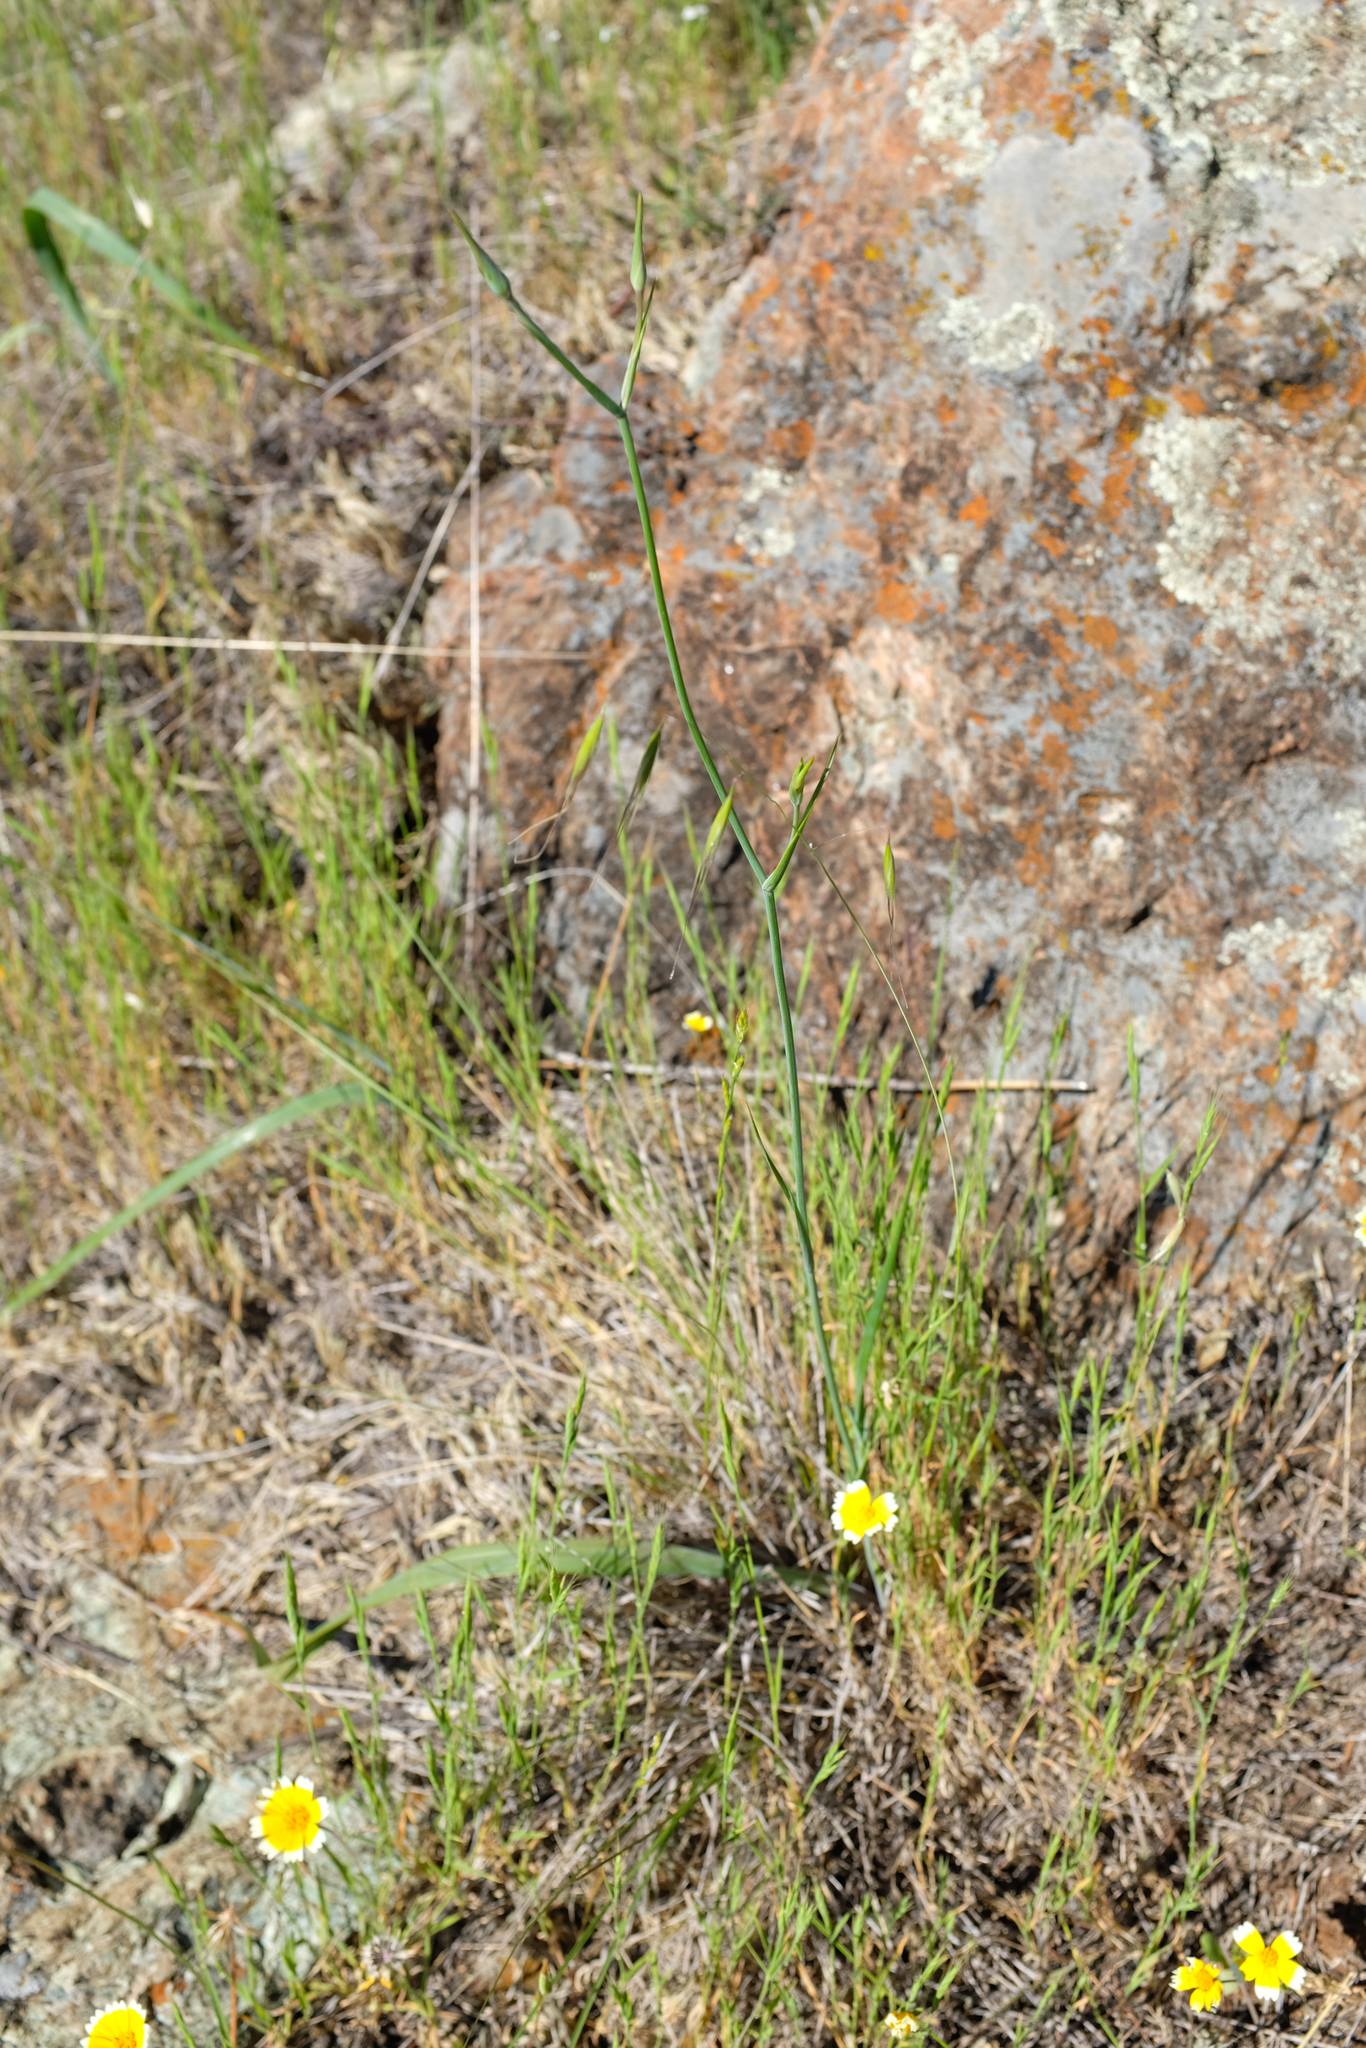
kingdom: Plantae
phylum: Tracheophyta
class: Liliopsida
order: Liliales
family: Liliaceae
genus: Calochortus
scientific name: Calochortus obispoensis
